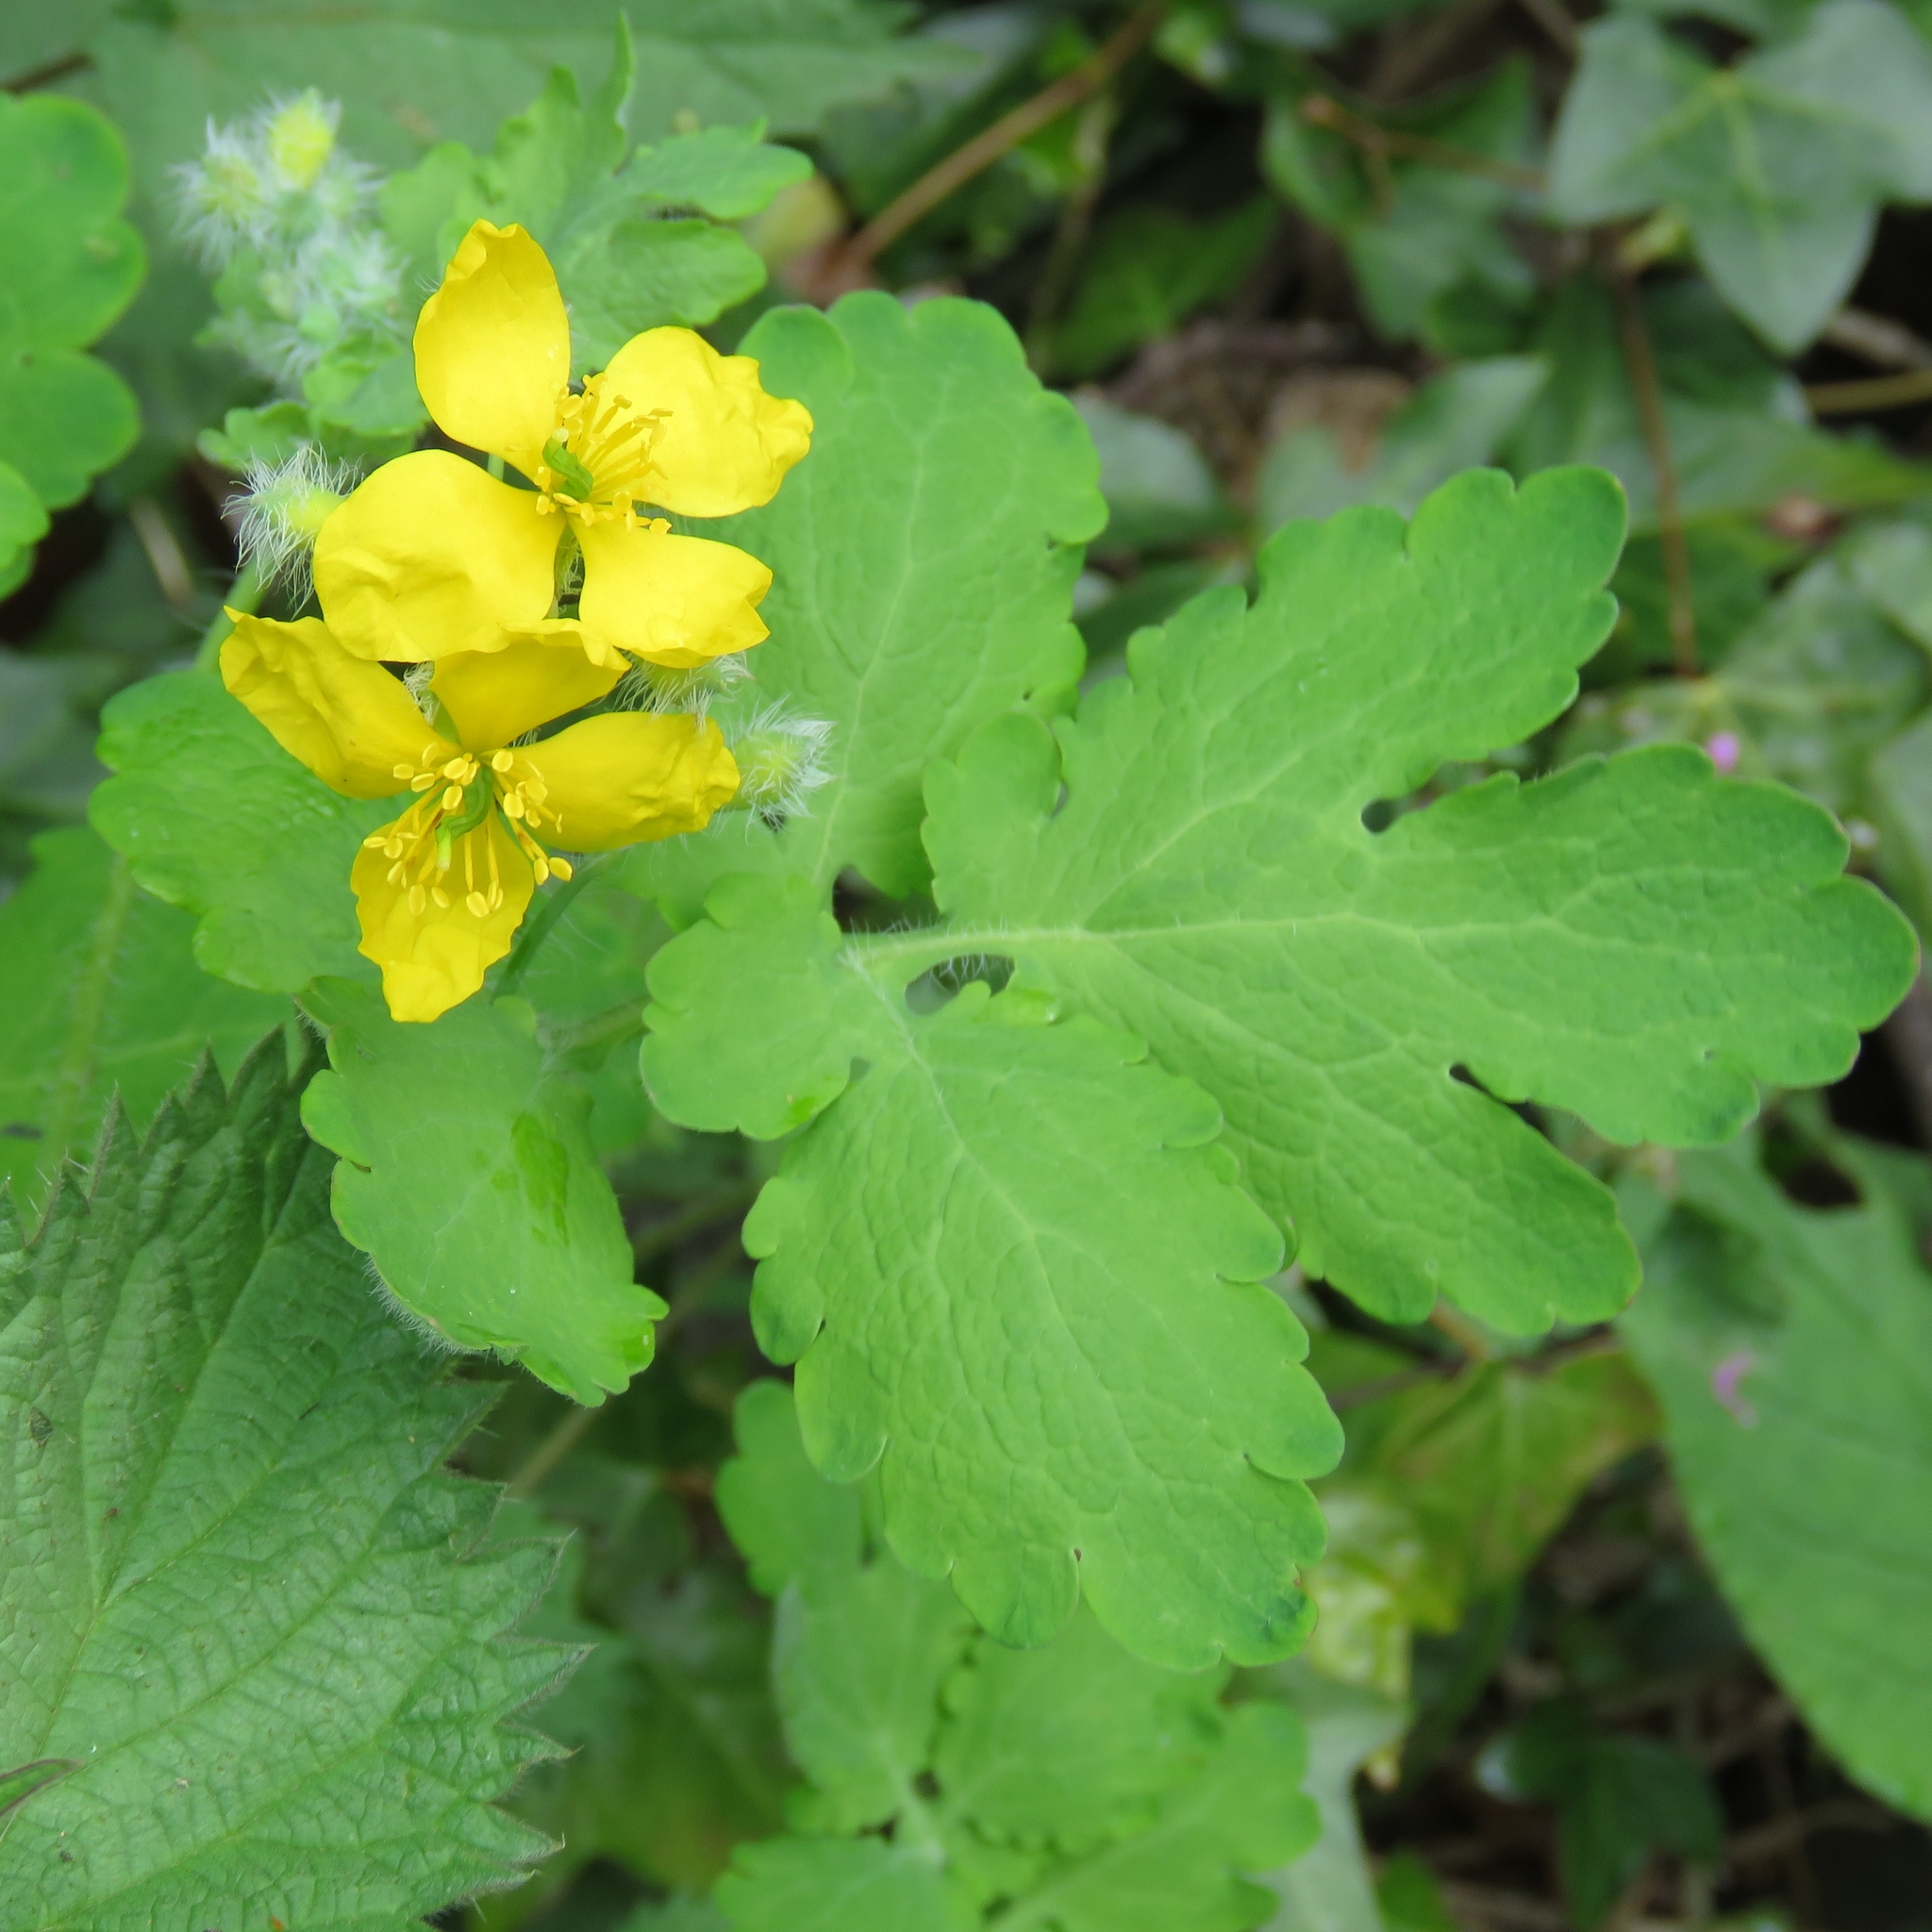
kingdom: Plantae
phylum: Tracheophyta
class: Magnoliopsida
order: Ranunculales
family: Papaveraceae
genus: Chelidonium
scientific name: Chelidonium majus
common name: Greater celandine
